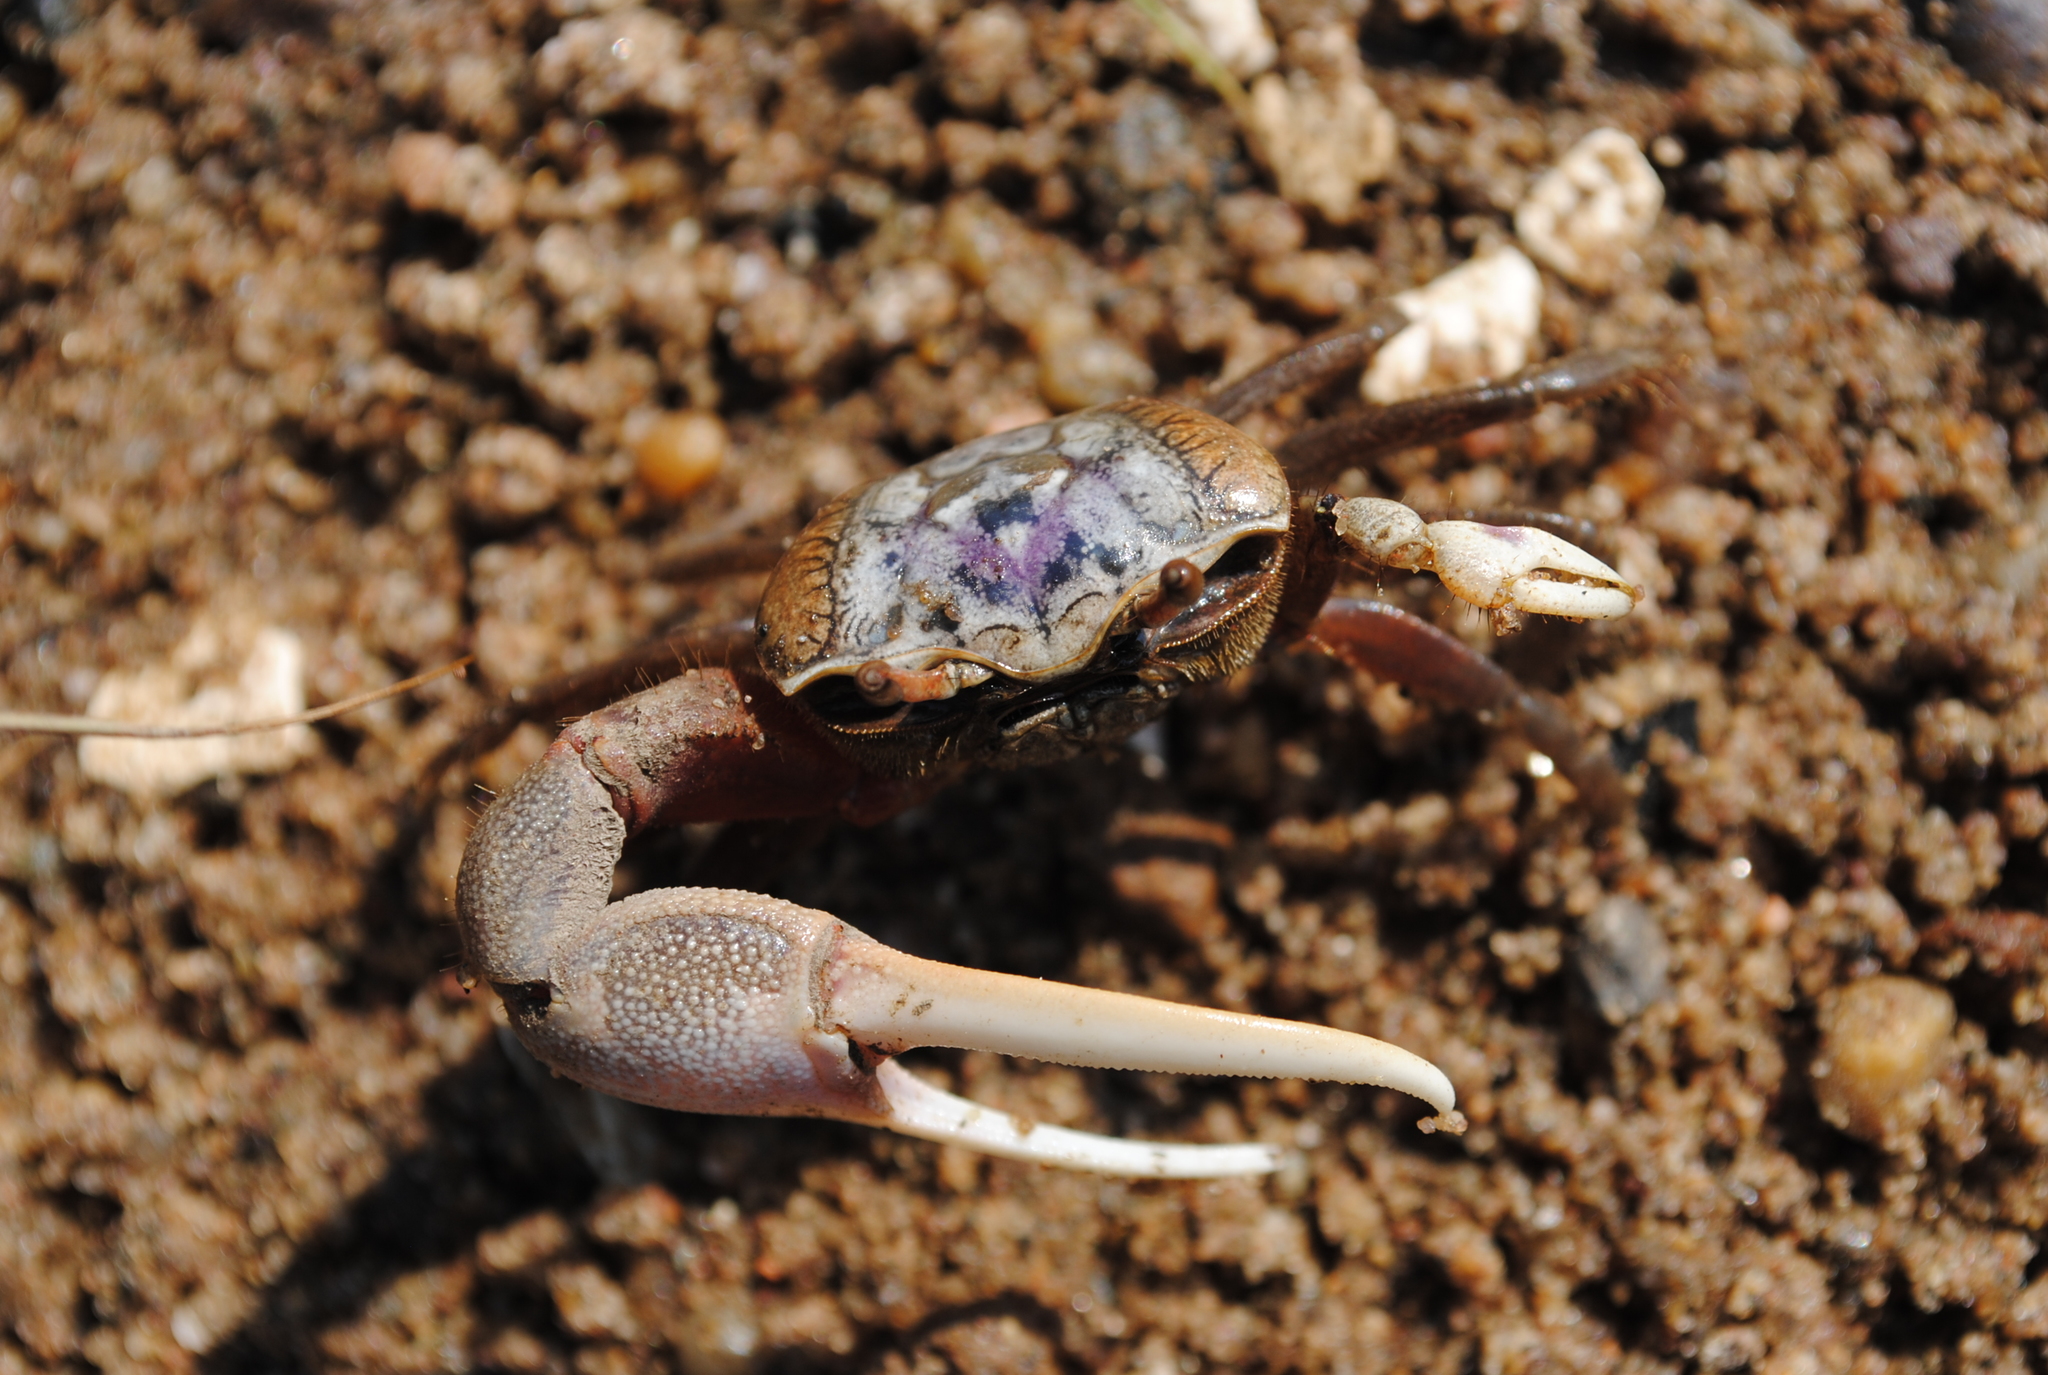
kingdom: Animalia
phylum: Arthropoda
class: Malacostraca
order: Decapoda
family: Ocypodidae
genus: Leptuca
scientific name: Leptuca pugilator
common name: Atlantic sand fiddler crab
